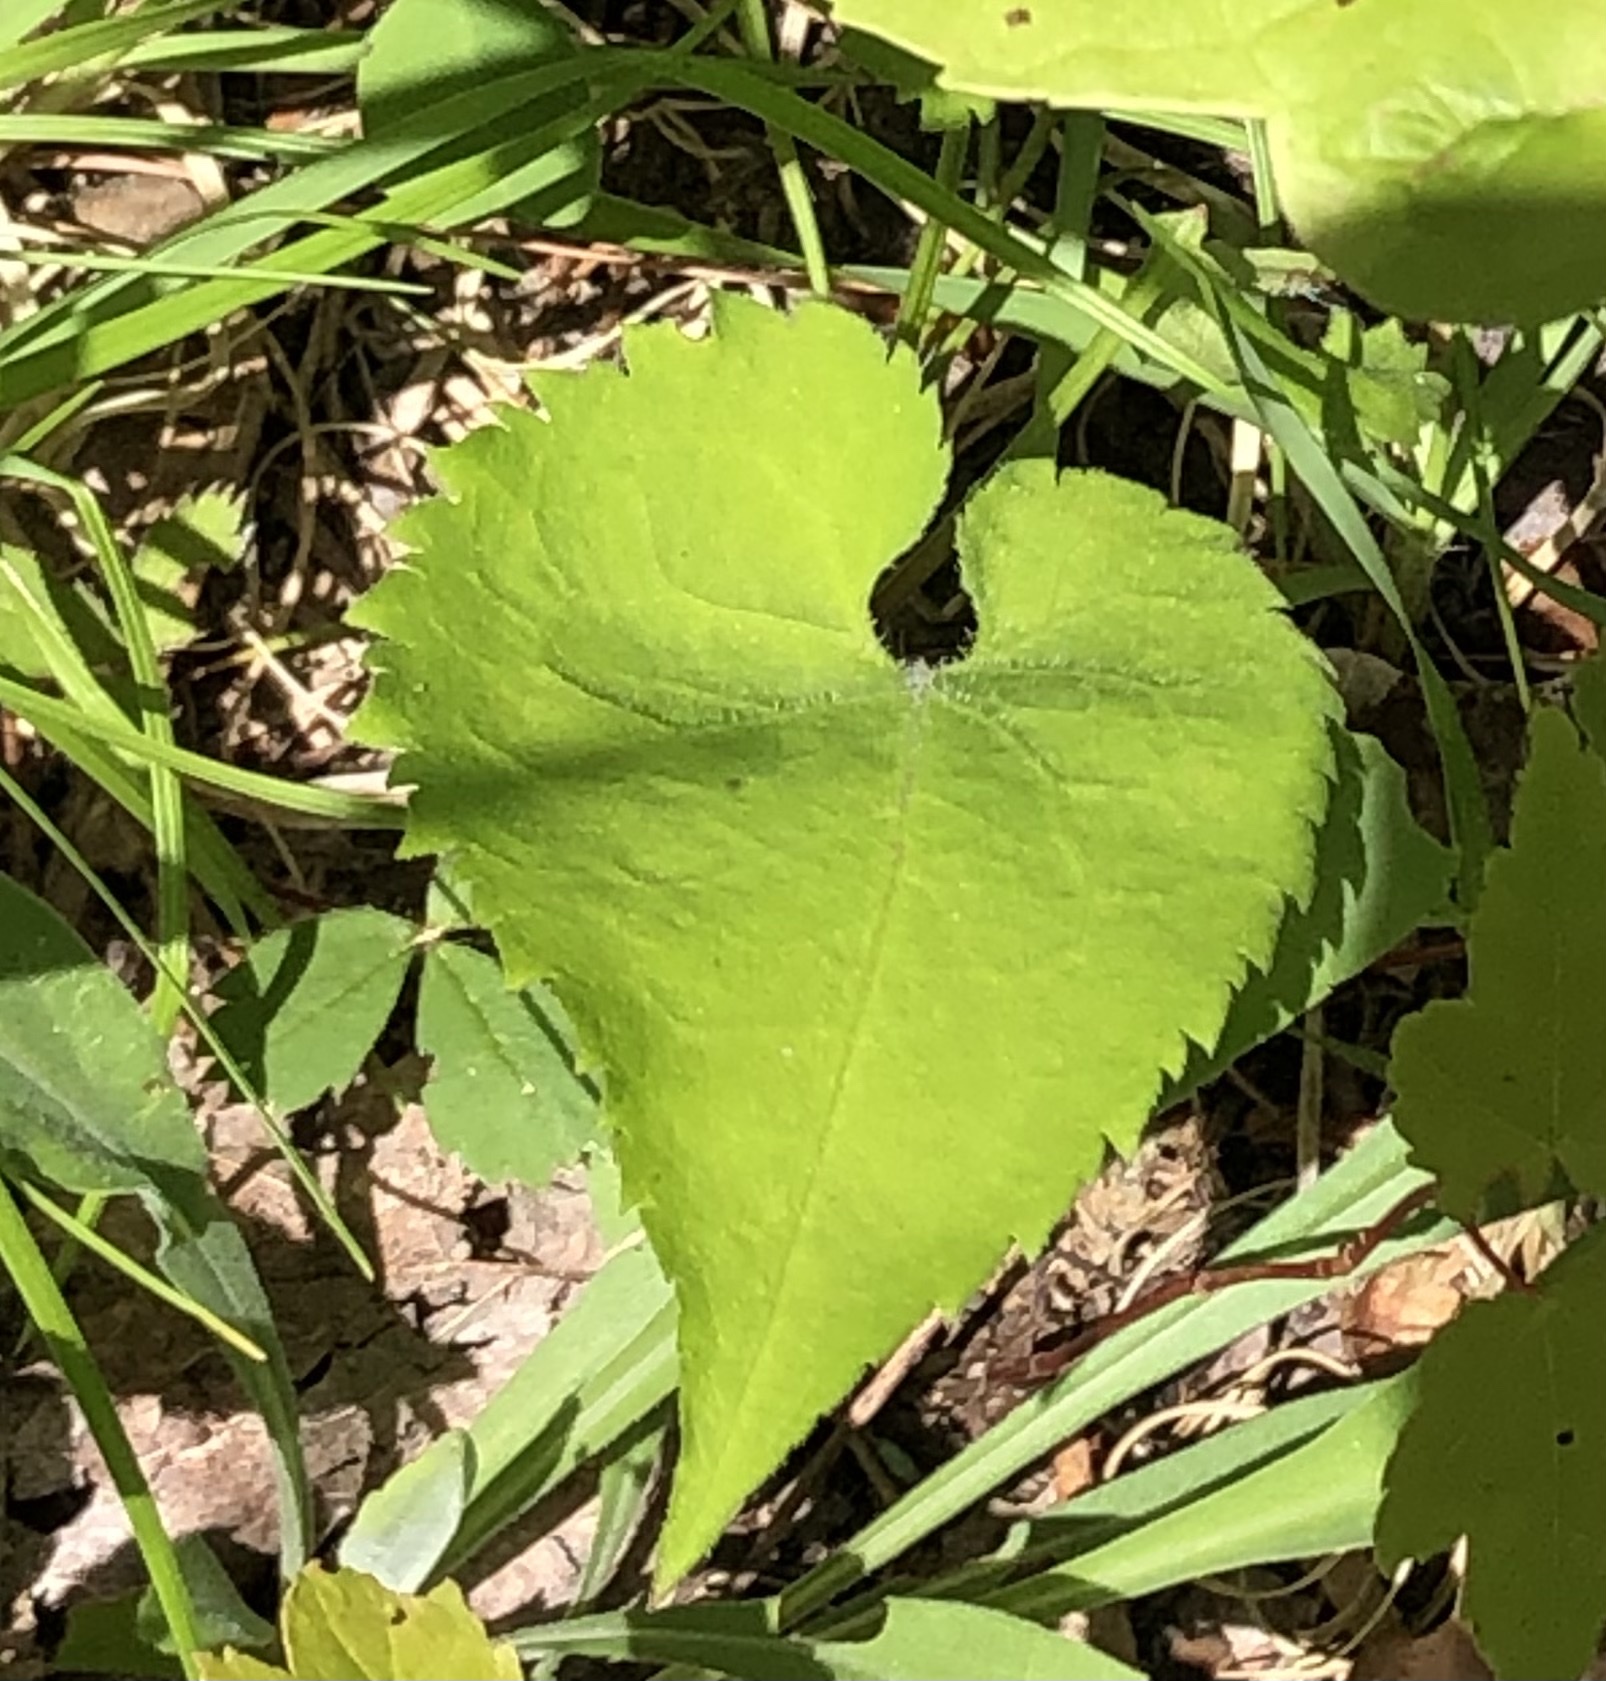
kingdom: Plantae
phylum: Tracheophyta
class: Magnoliopsida
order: Asterales
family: Asteraceae
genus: Symphyotrichum
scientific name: Symphyotrichum cordifolium
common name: Beeweed
